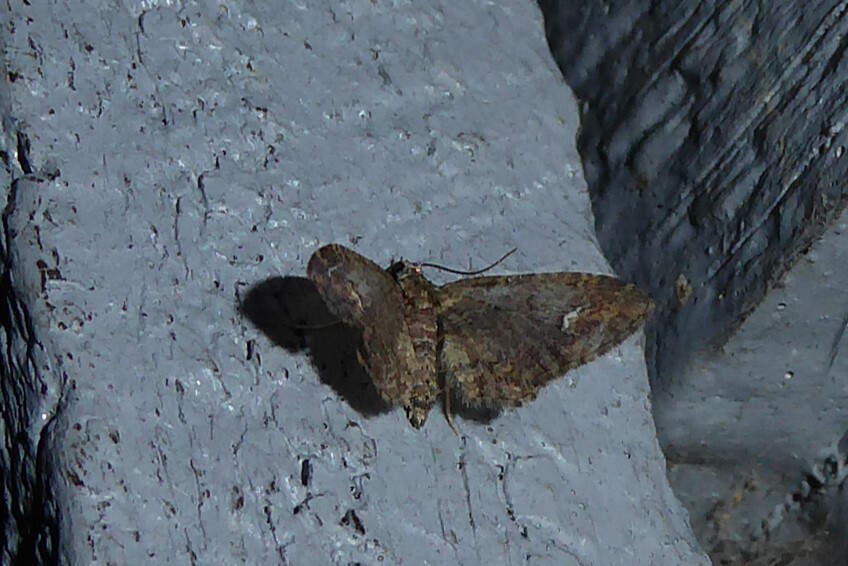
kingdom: Animalia
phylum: Arthropoda
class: Insecta
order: Lepidoptera
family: Geometridae
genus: Pasiphilodes
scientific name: Pasiphilodes testulata
